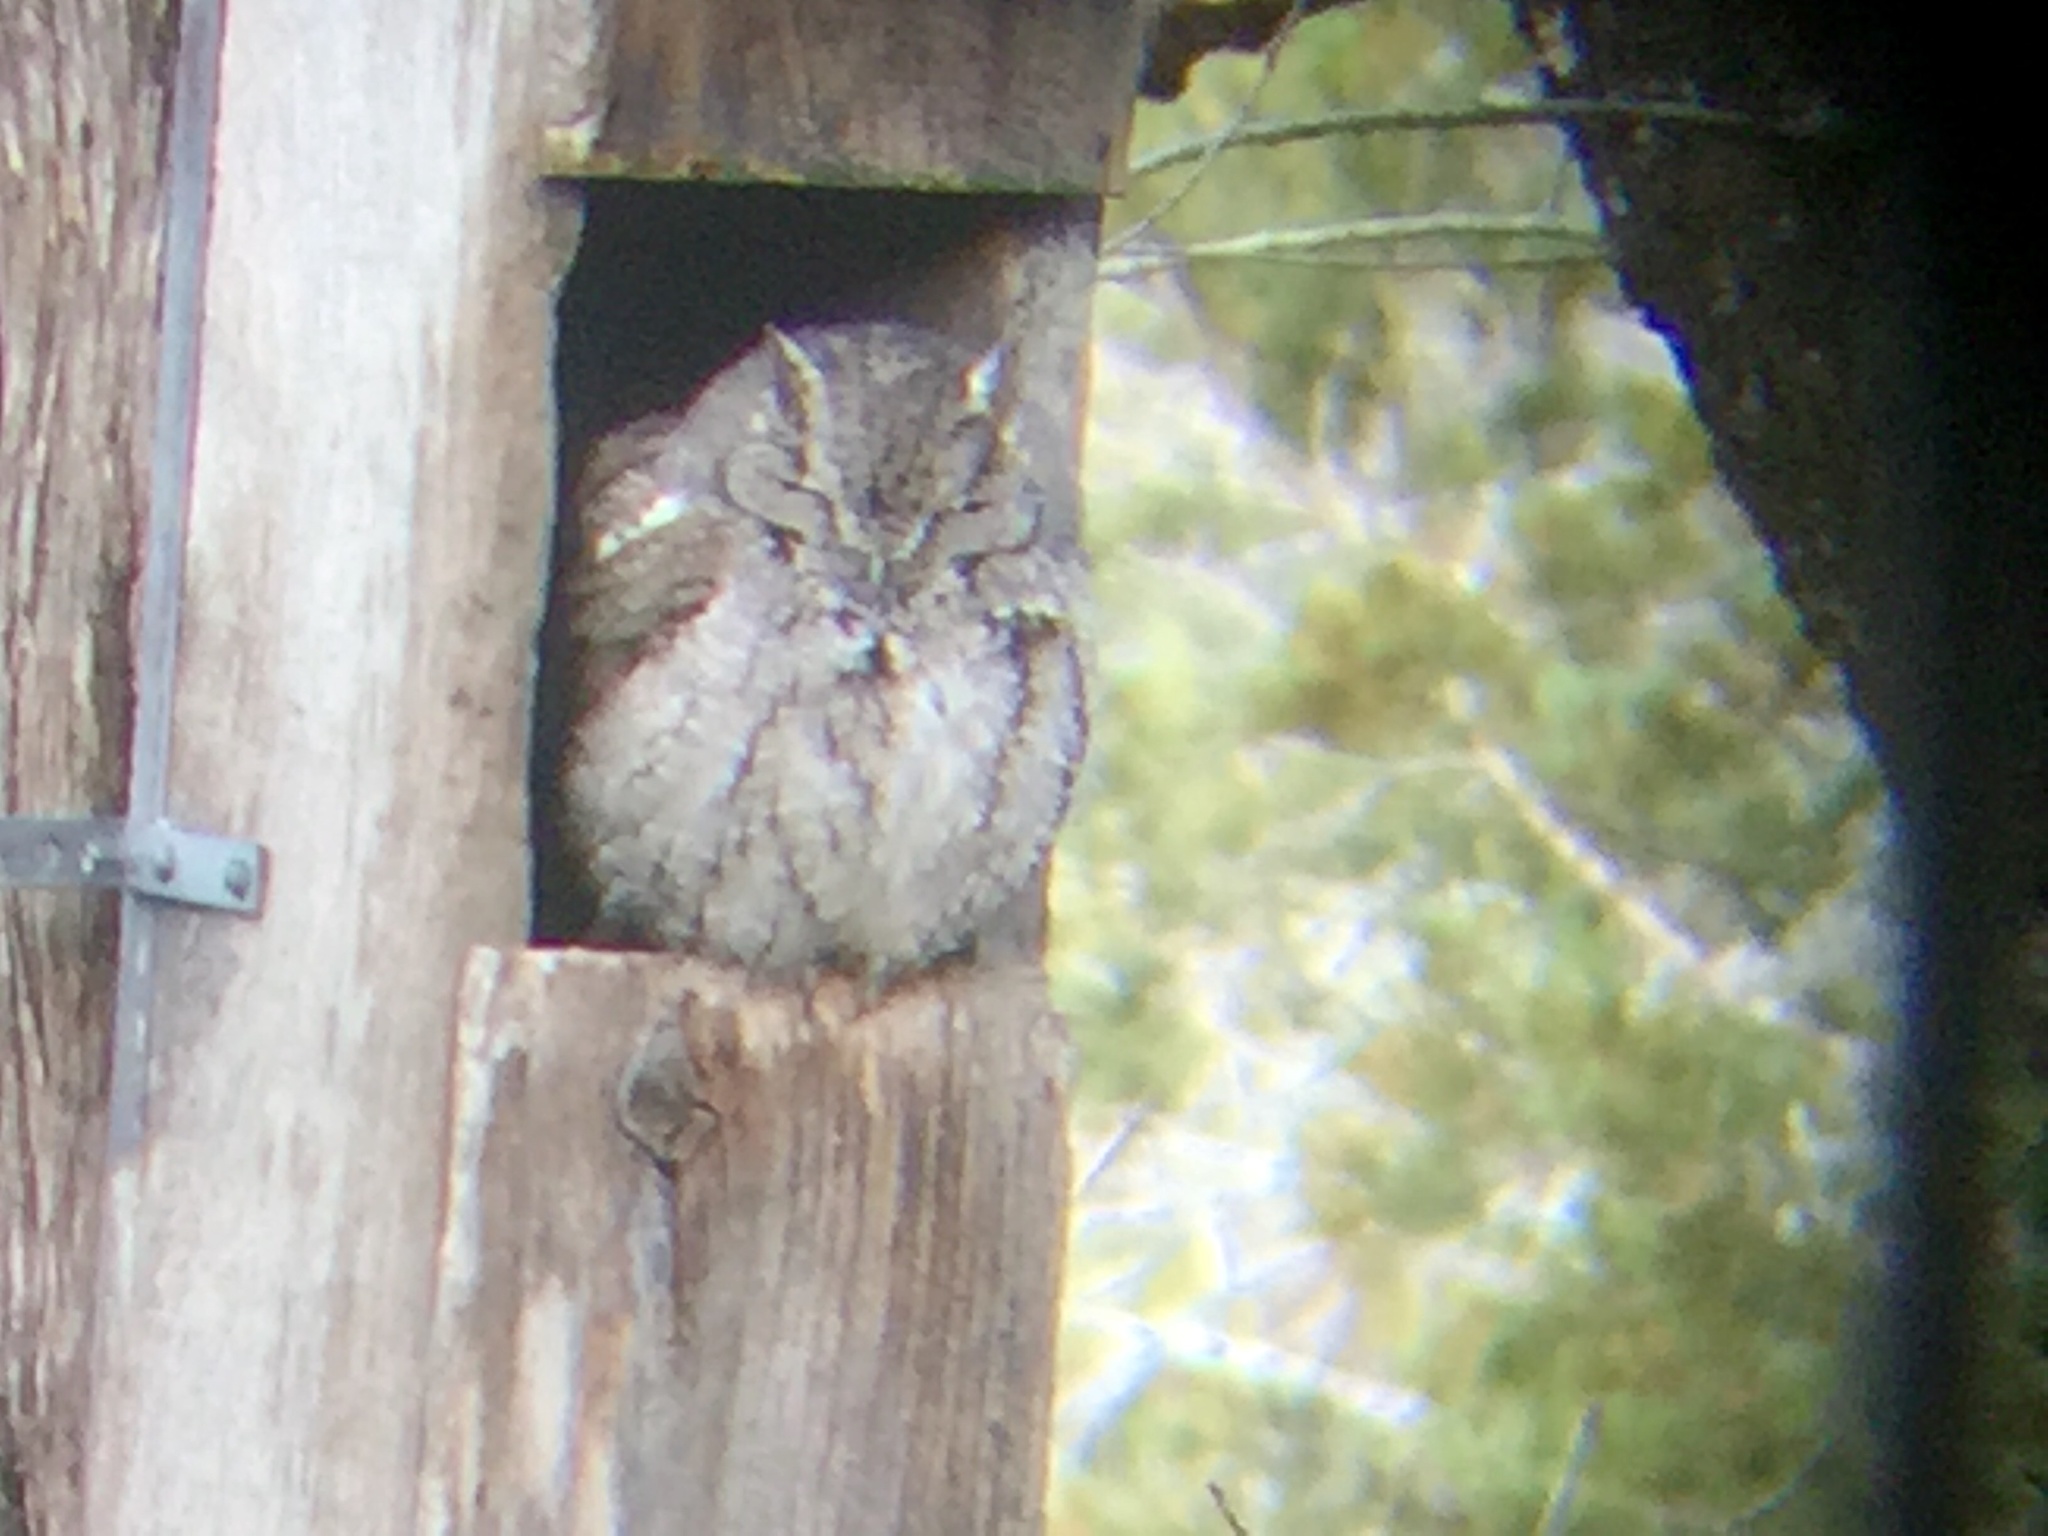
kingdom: Animalia
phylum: Chordata
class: Aves
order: Strigiformes
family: Strigidae
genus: Megascops
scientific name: Megascops asio
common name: Eastern screech-owl
